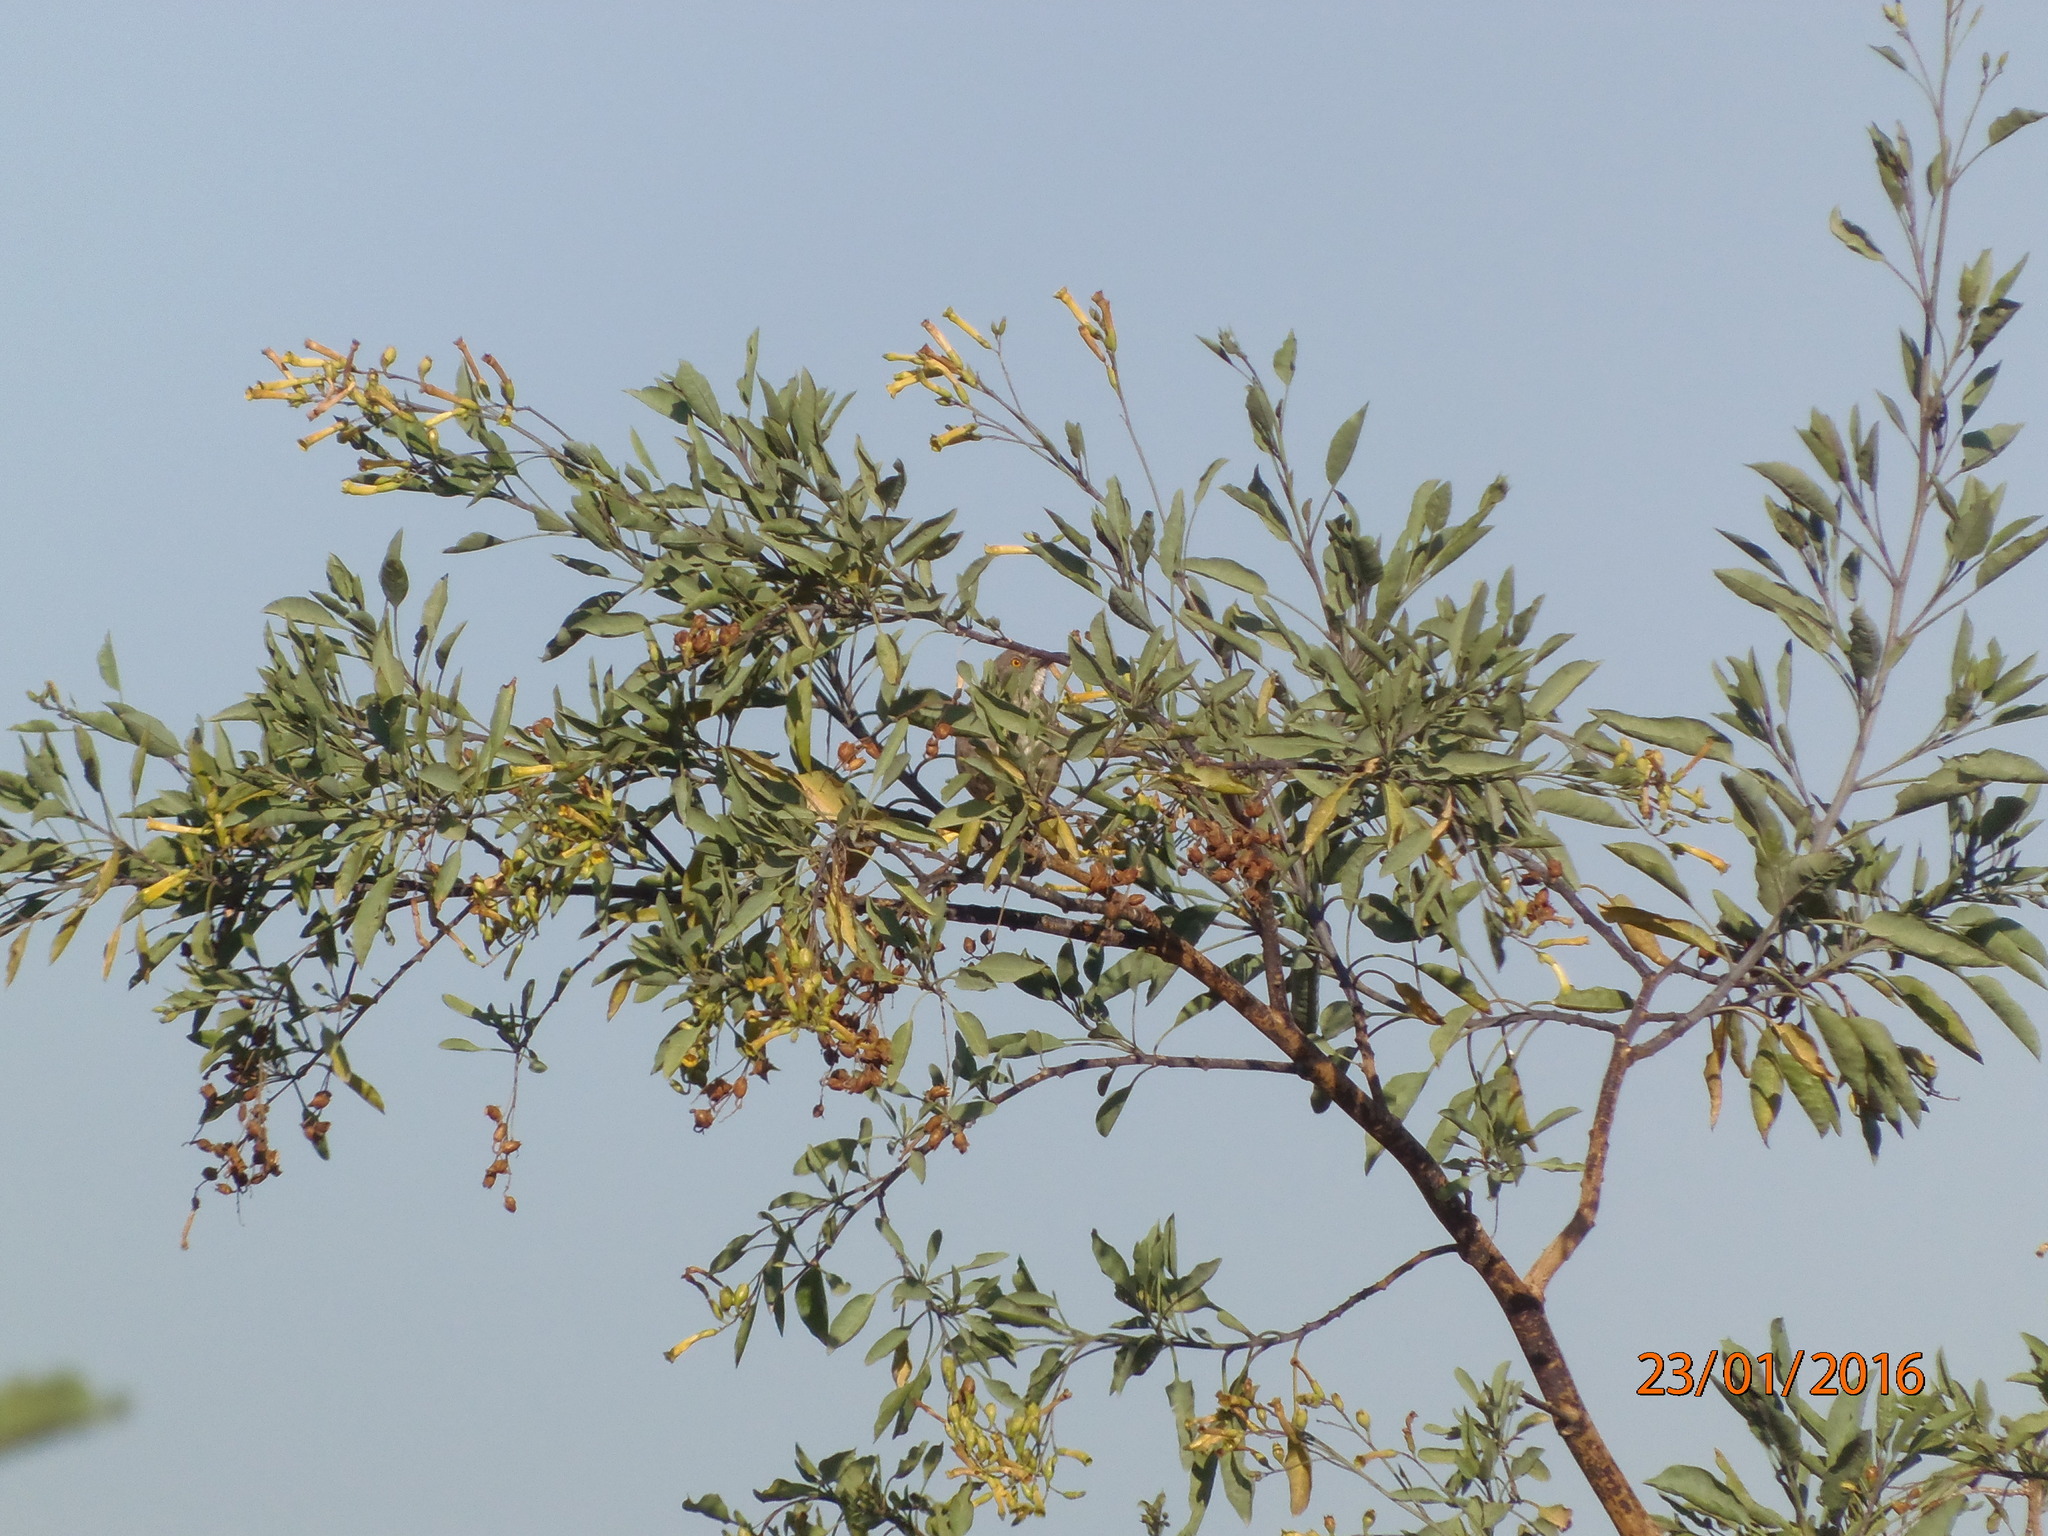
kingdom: Plantae
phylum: Tracheophyta
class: Magnoliopsida
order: Solanales
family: Solanaceae
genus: Nicotiana
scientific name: Nicotiana glauca
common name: Tree tobacco
